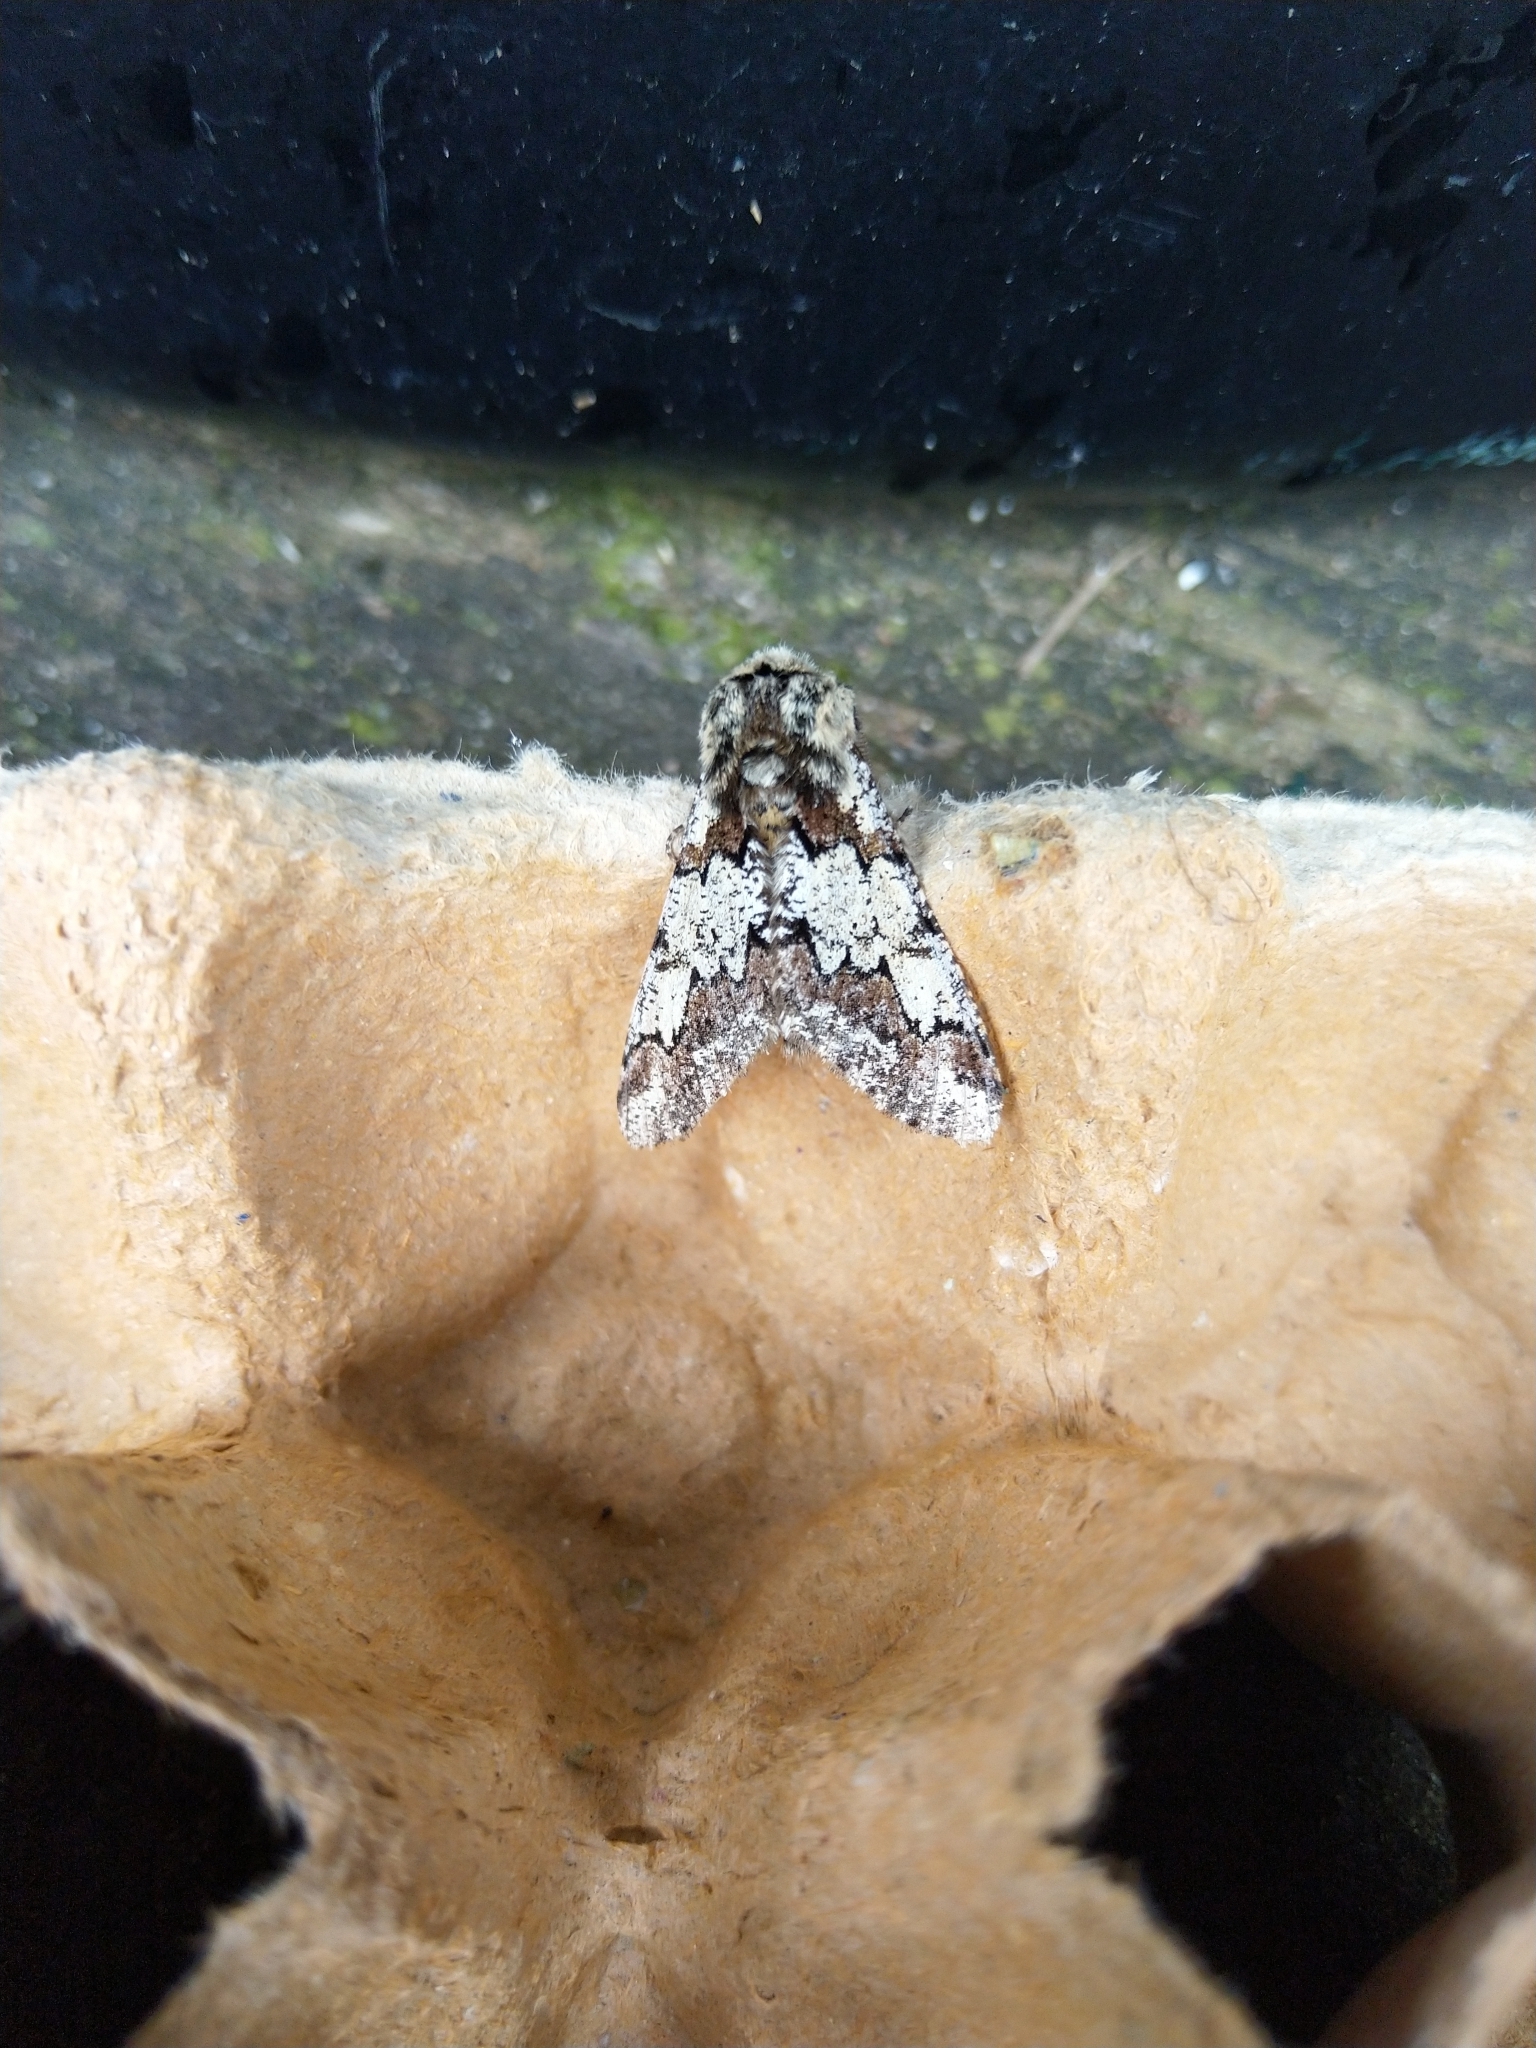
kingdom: Animalia
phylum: Arthropoda
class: Insecta
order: Lepidoptera
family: Geometridae
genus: Biston
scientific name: Biston strataria
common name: Oak beauty
